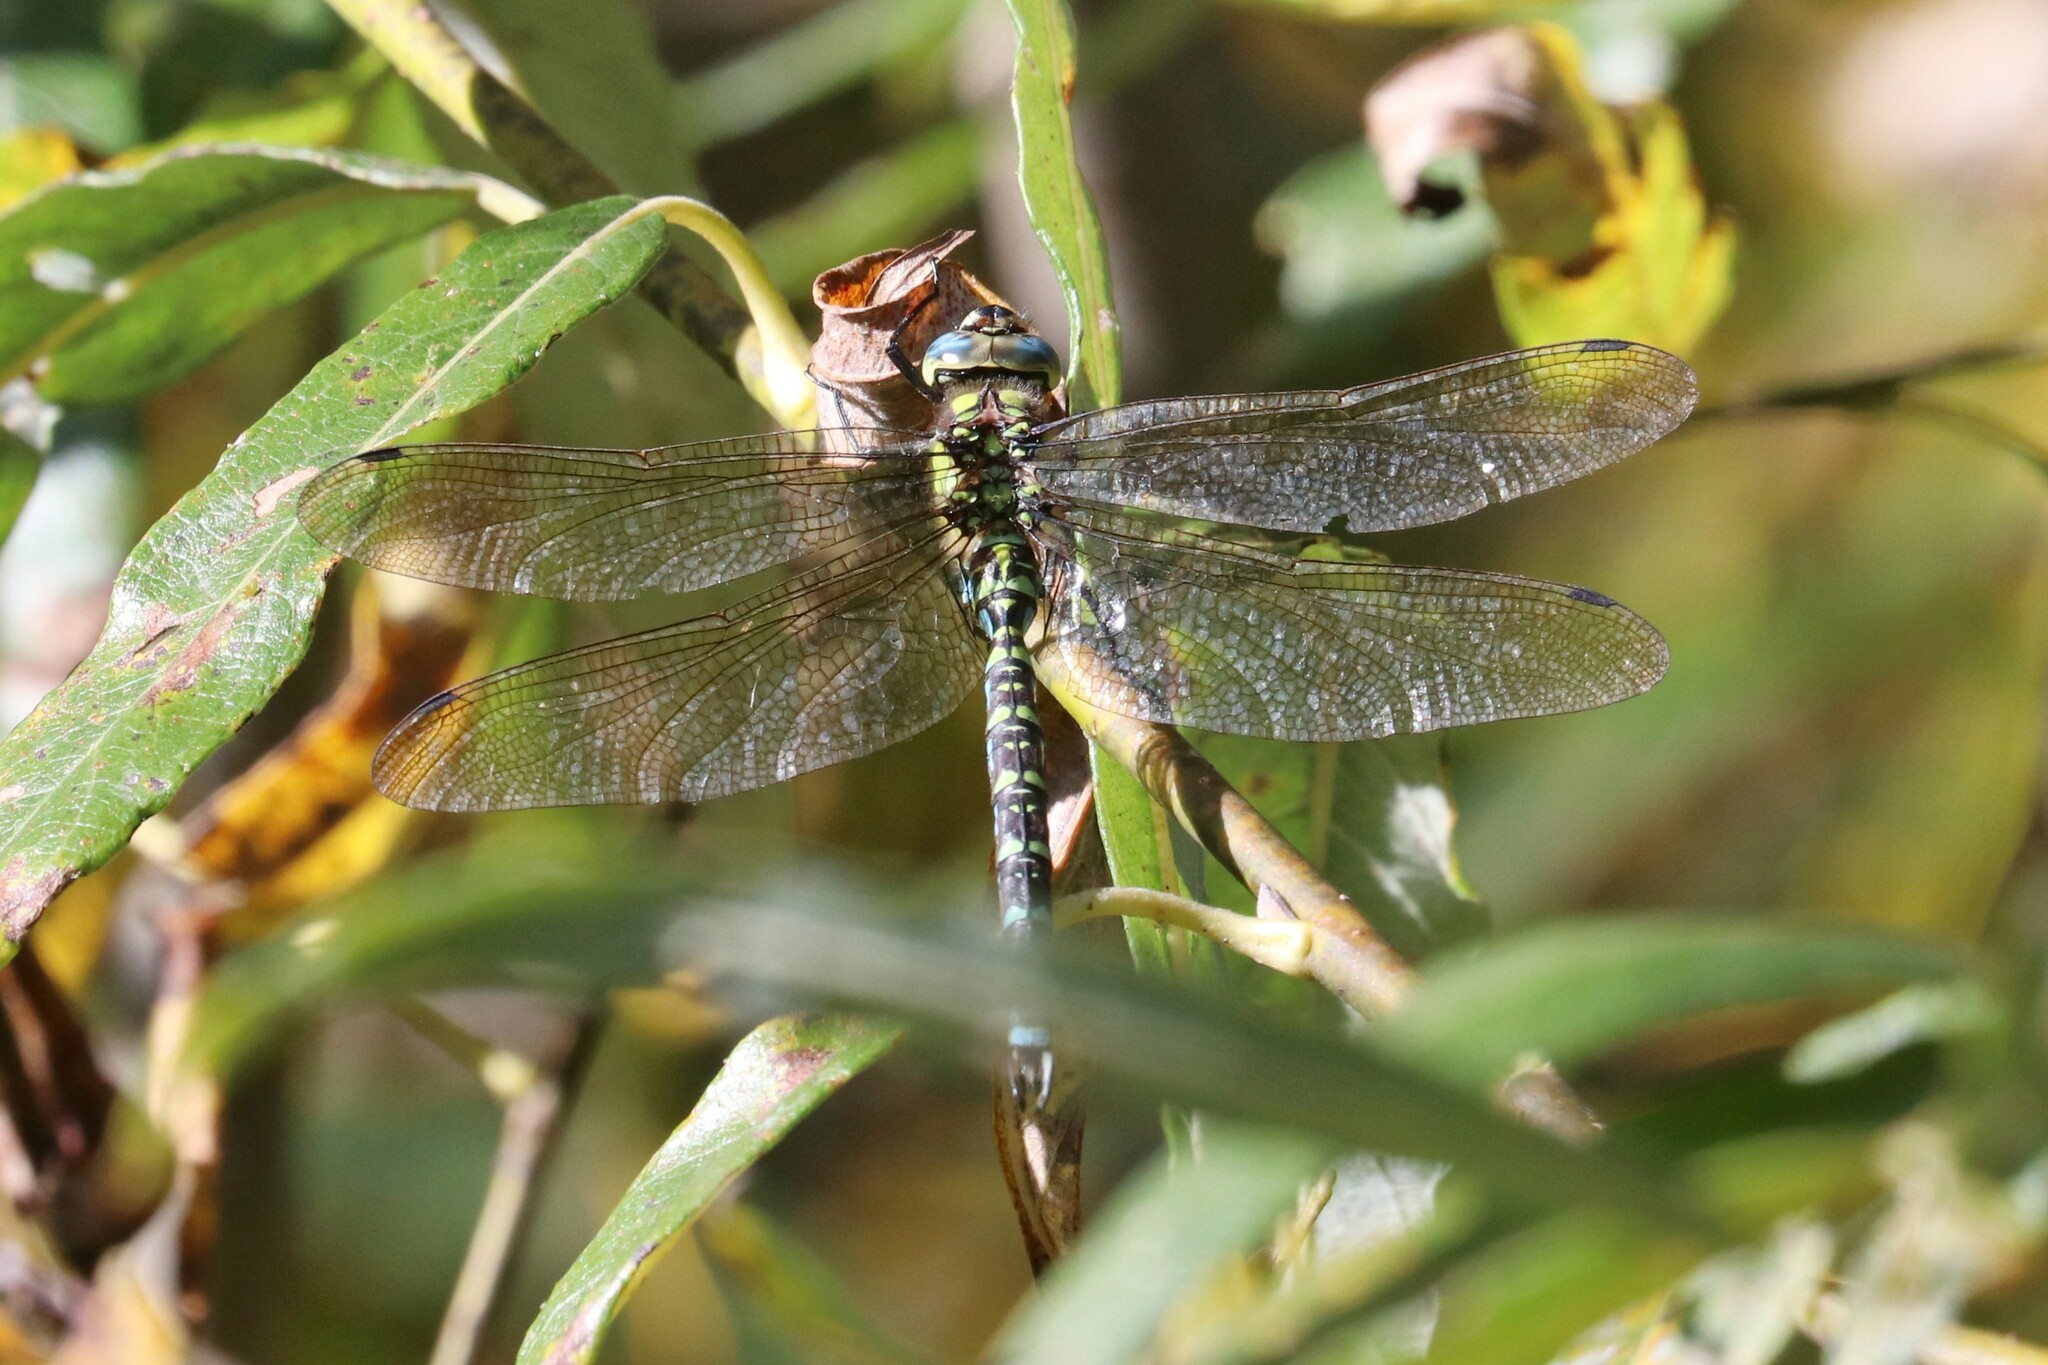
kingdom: Animalia
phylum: Arthropoda
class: Insecta
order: Odonata
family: Aeshnidae
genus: Aeshna
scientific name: Aeshna cyanea
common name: Southern hawker
